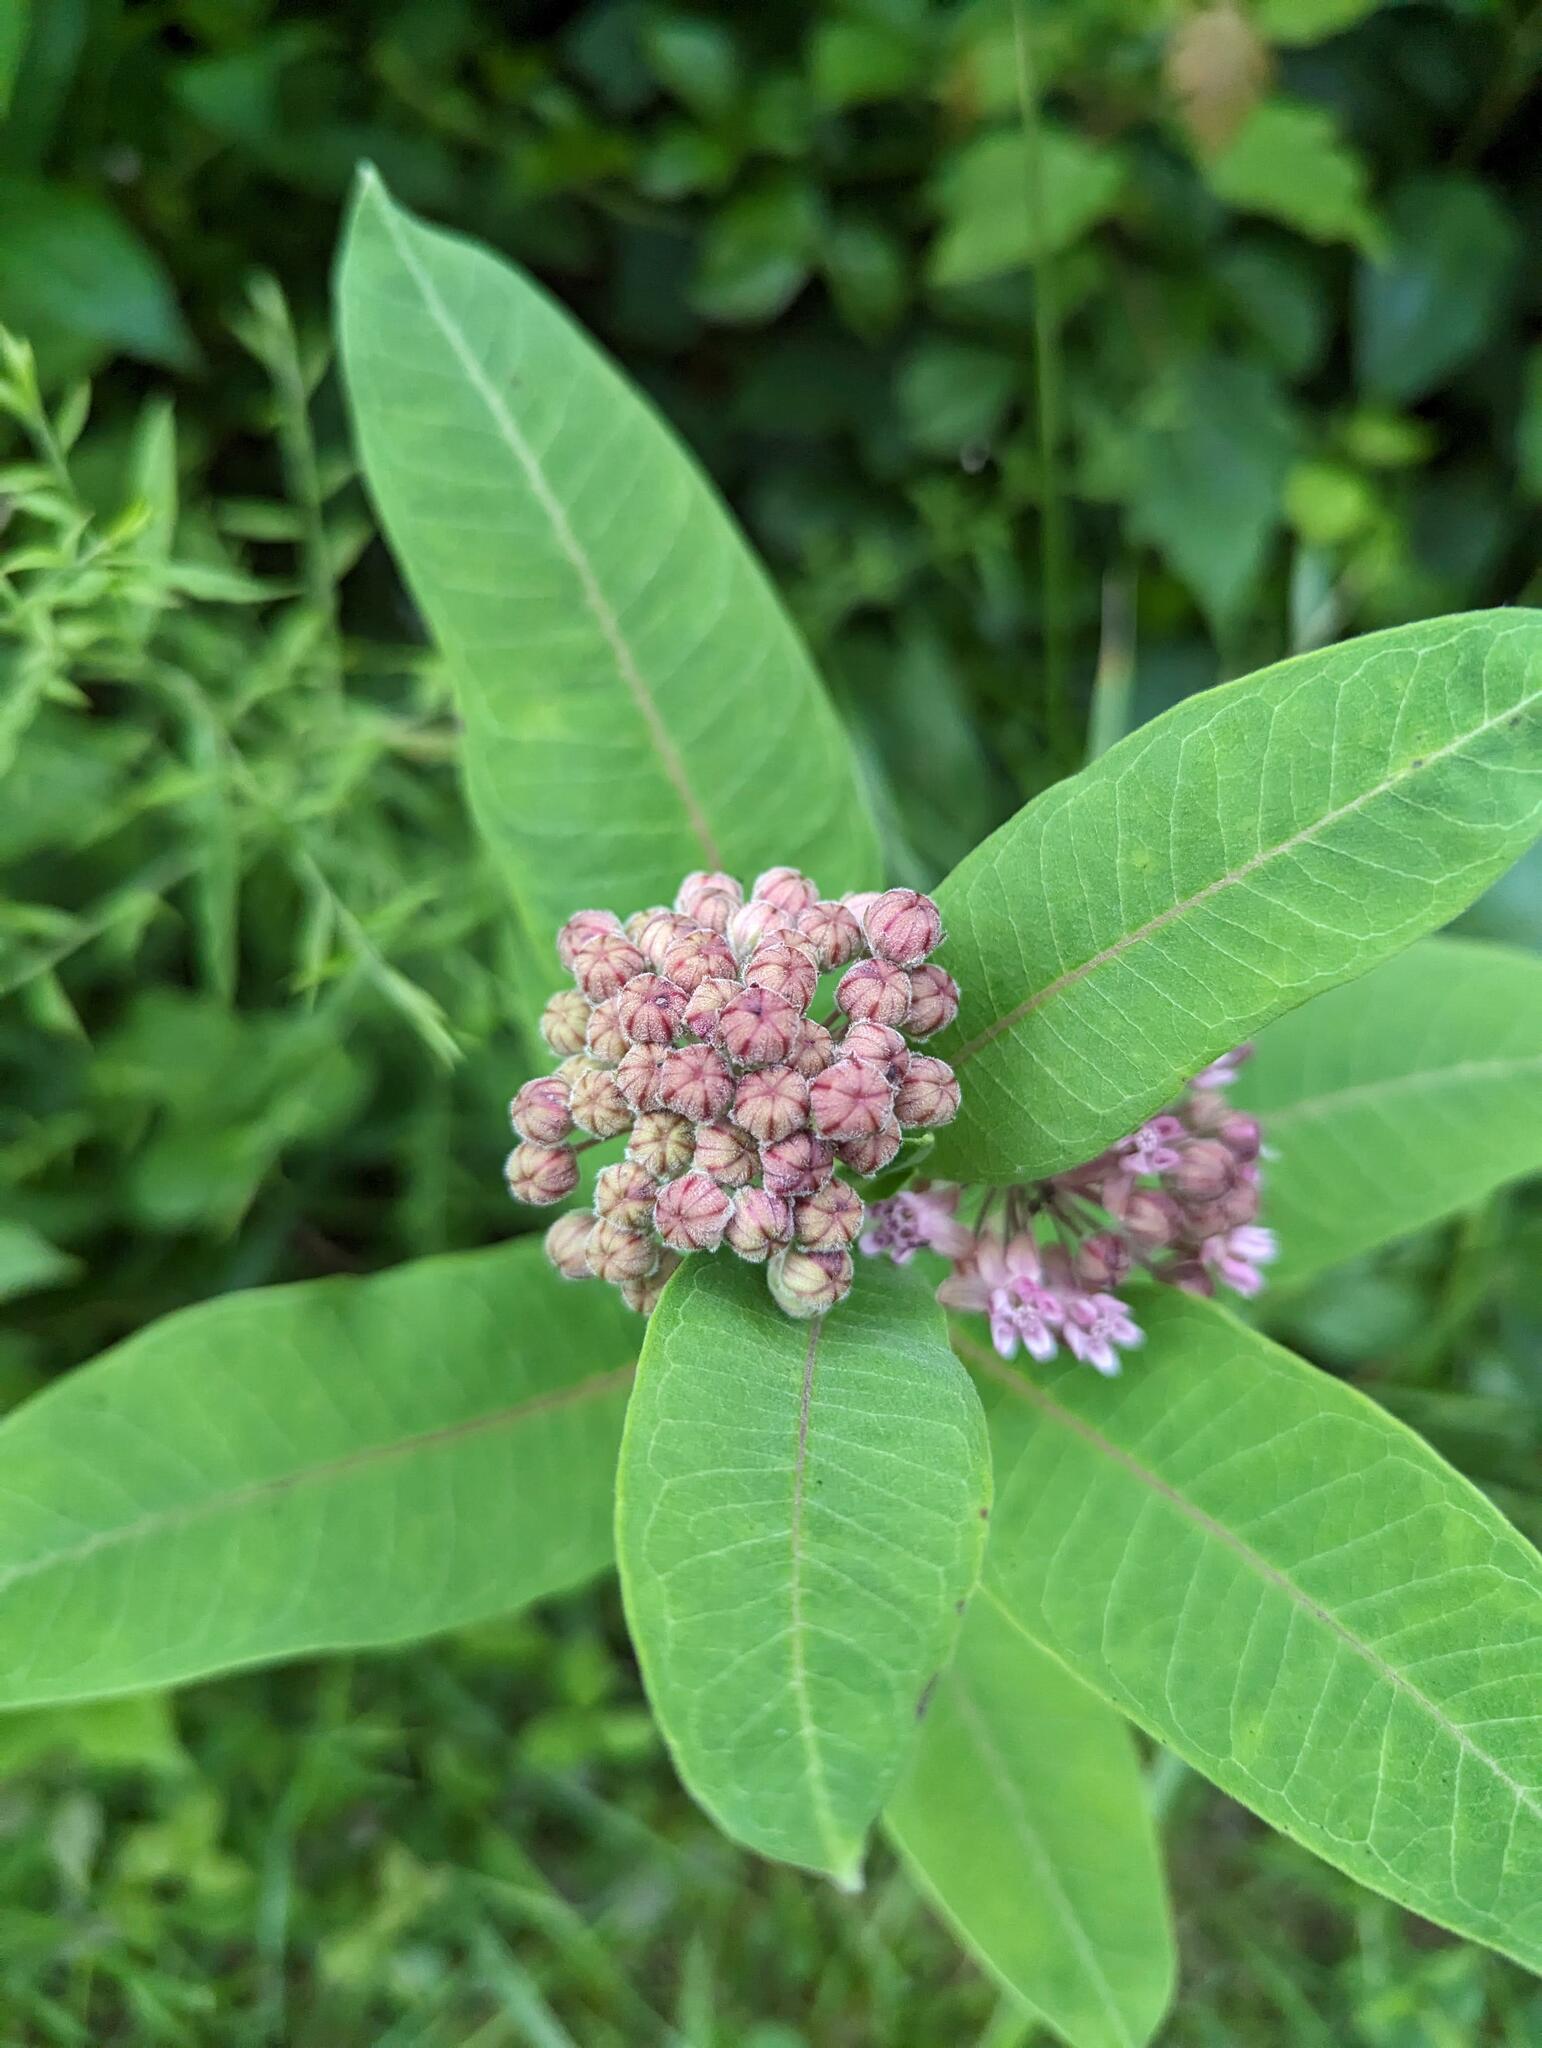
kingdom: Plantae
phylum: Tracheophyta
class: Magnoliopsida
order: Gentianales
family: Apocynaceae
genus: Asclepias
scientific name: Asclepias syriaca
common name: Common milkweed
